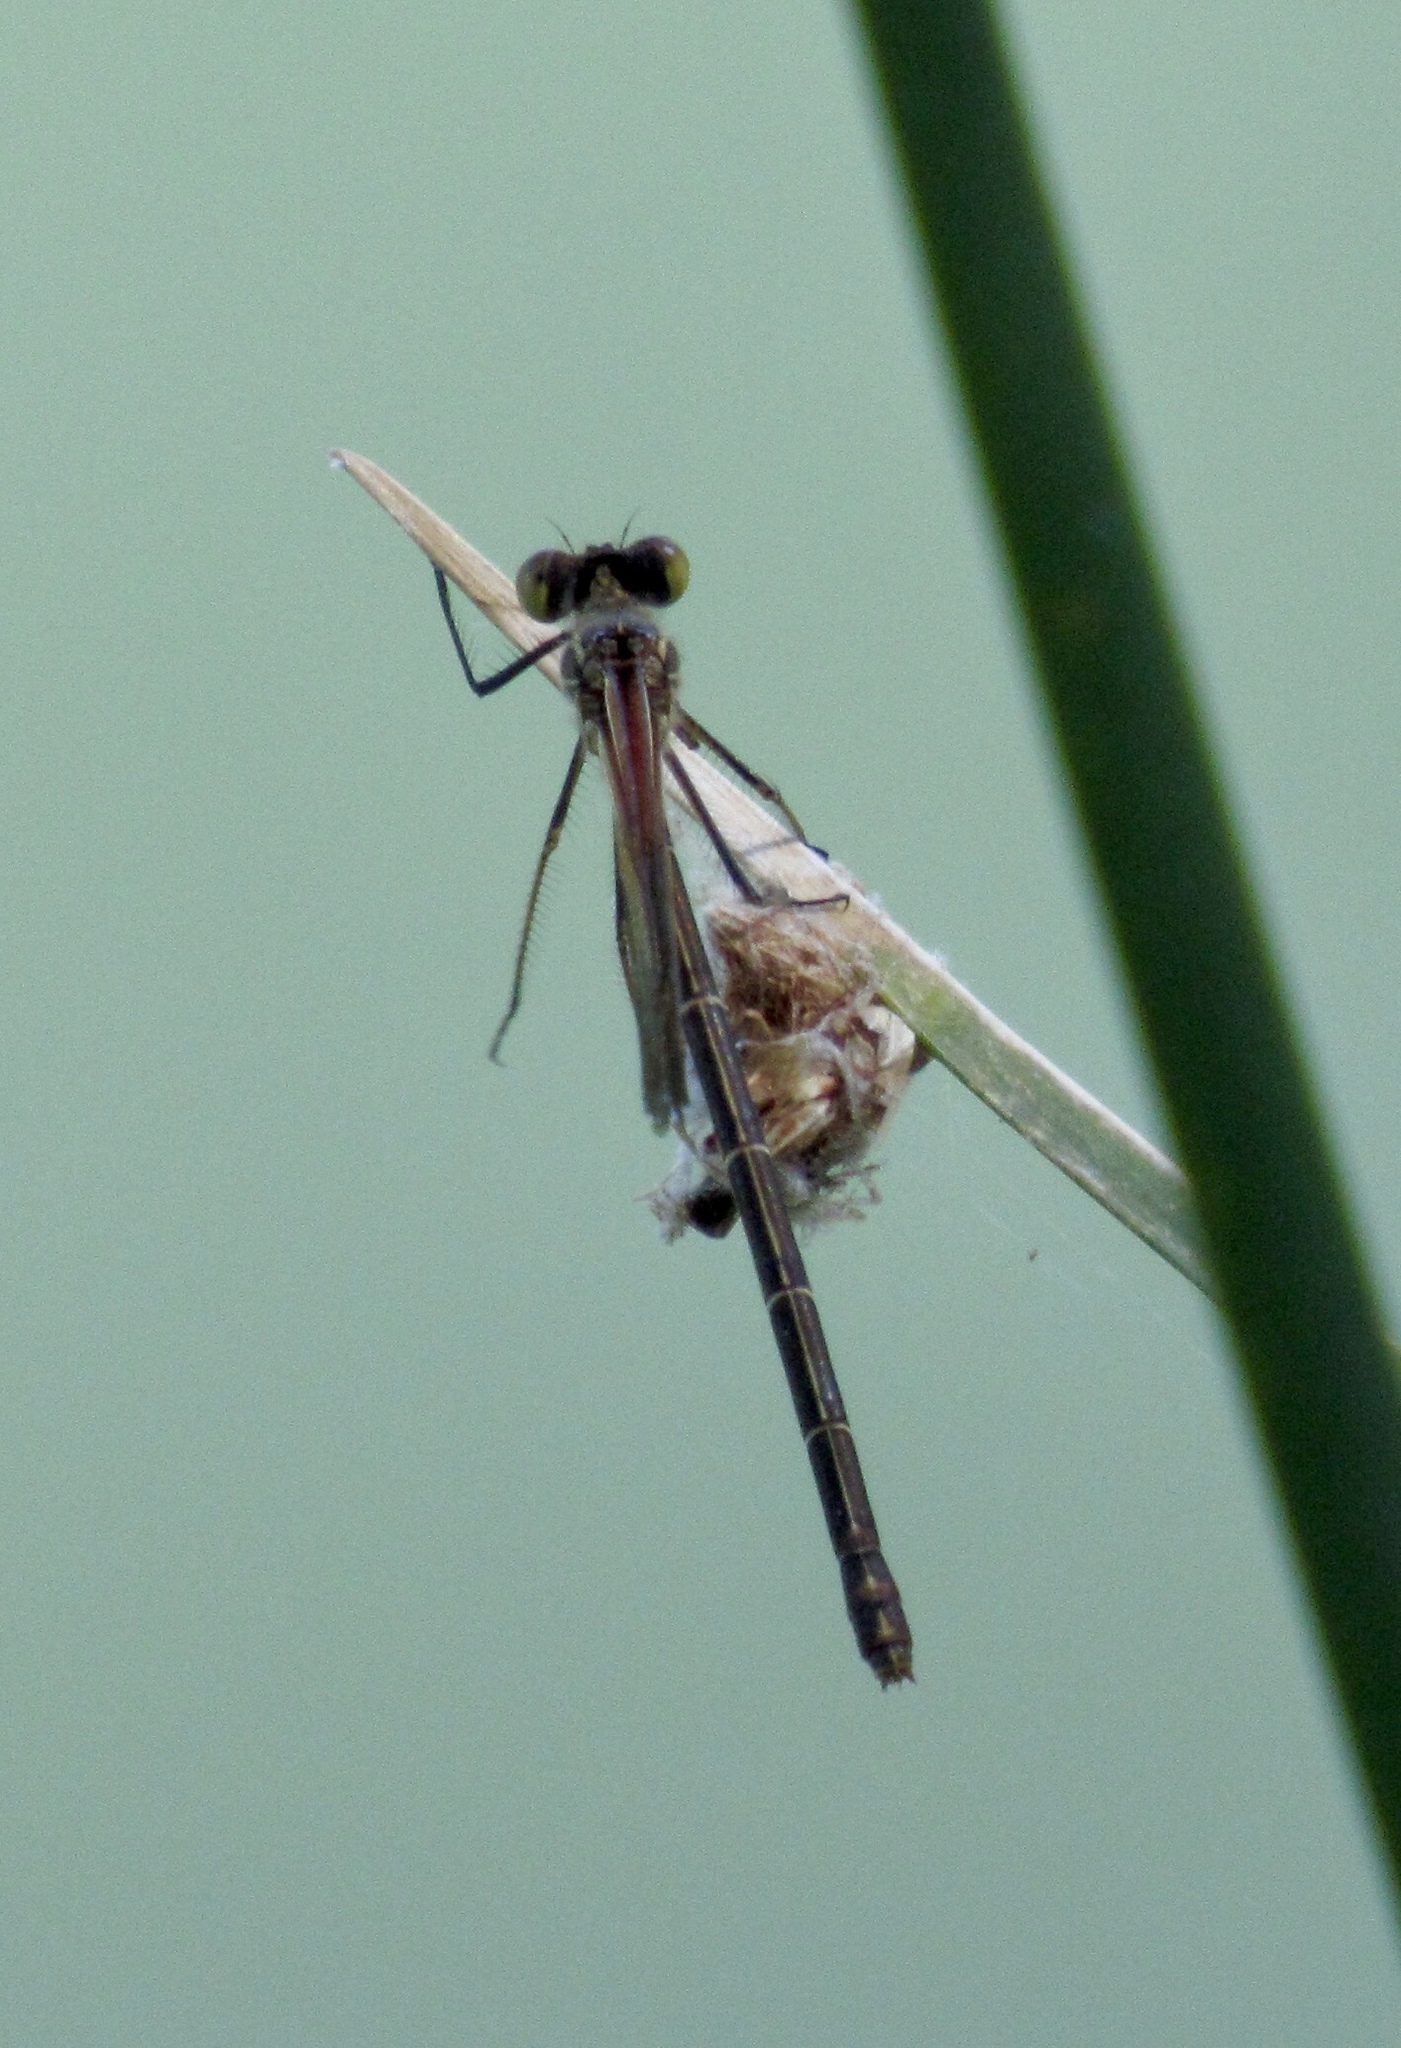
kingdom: Animalia
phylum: Arthropoda
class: Insecta
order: Odonata
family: Calopterygidae
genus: Hetaerina
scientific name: Hetaerina americana
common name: American rubyspot
